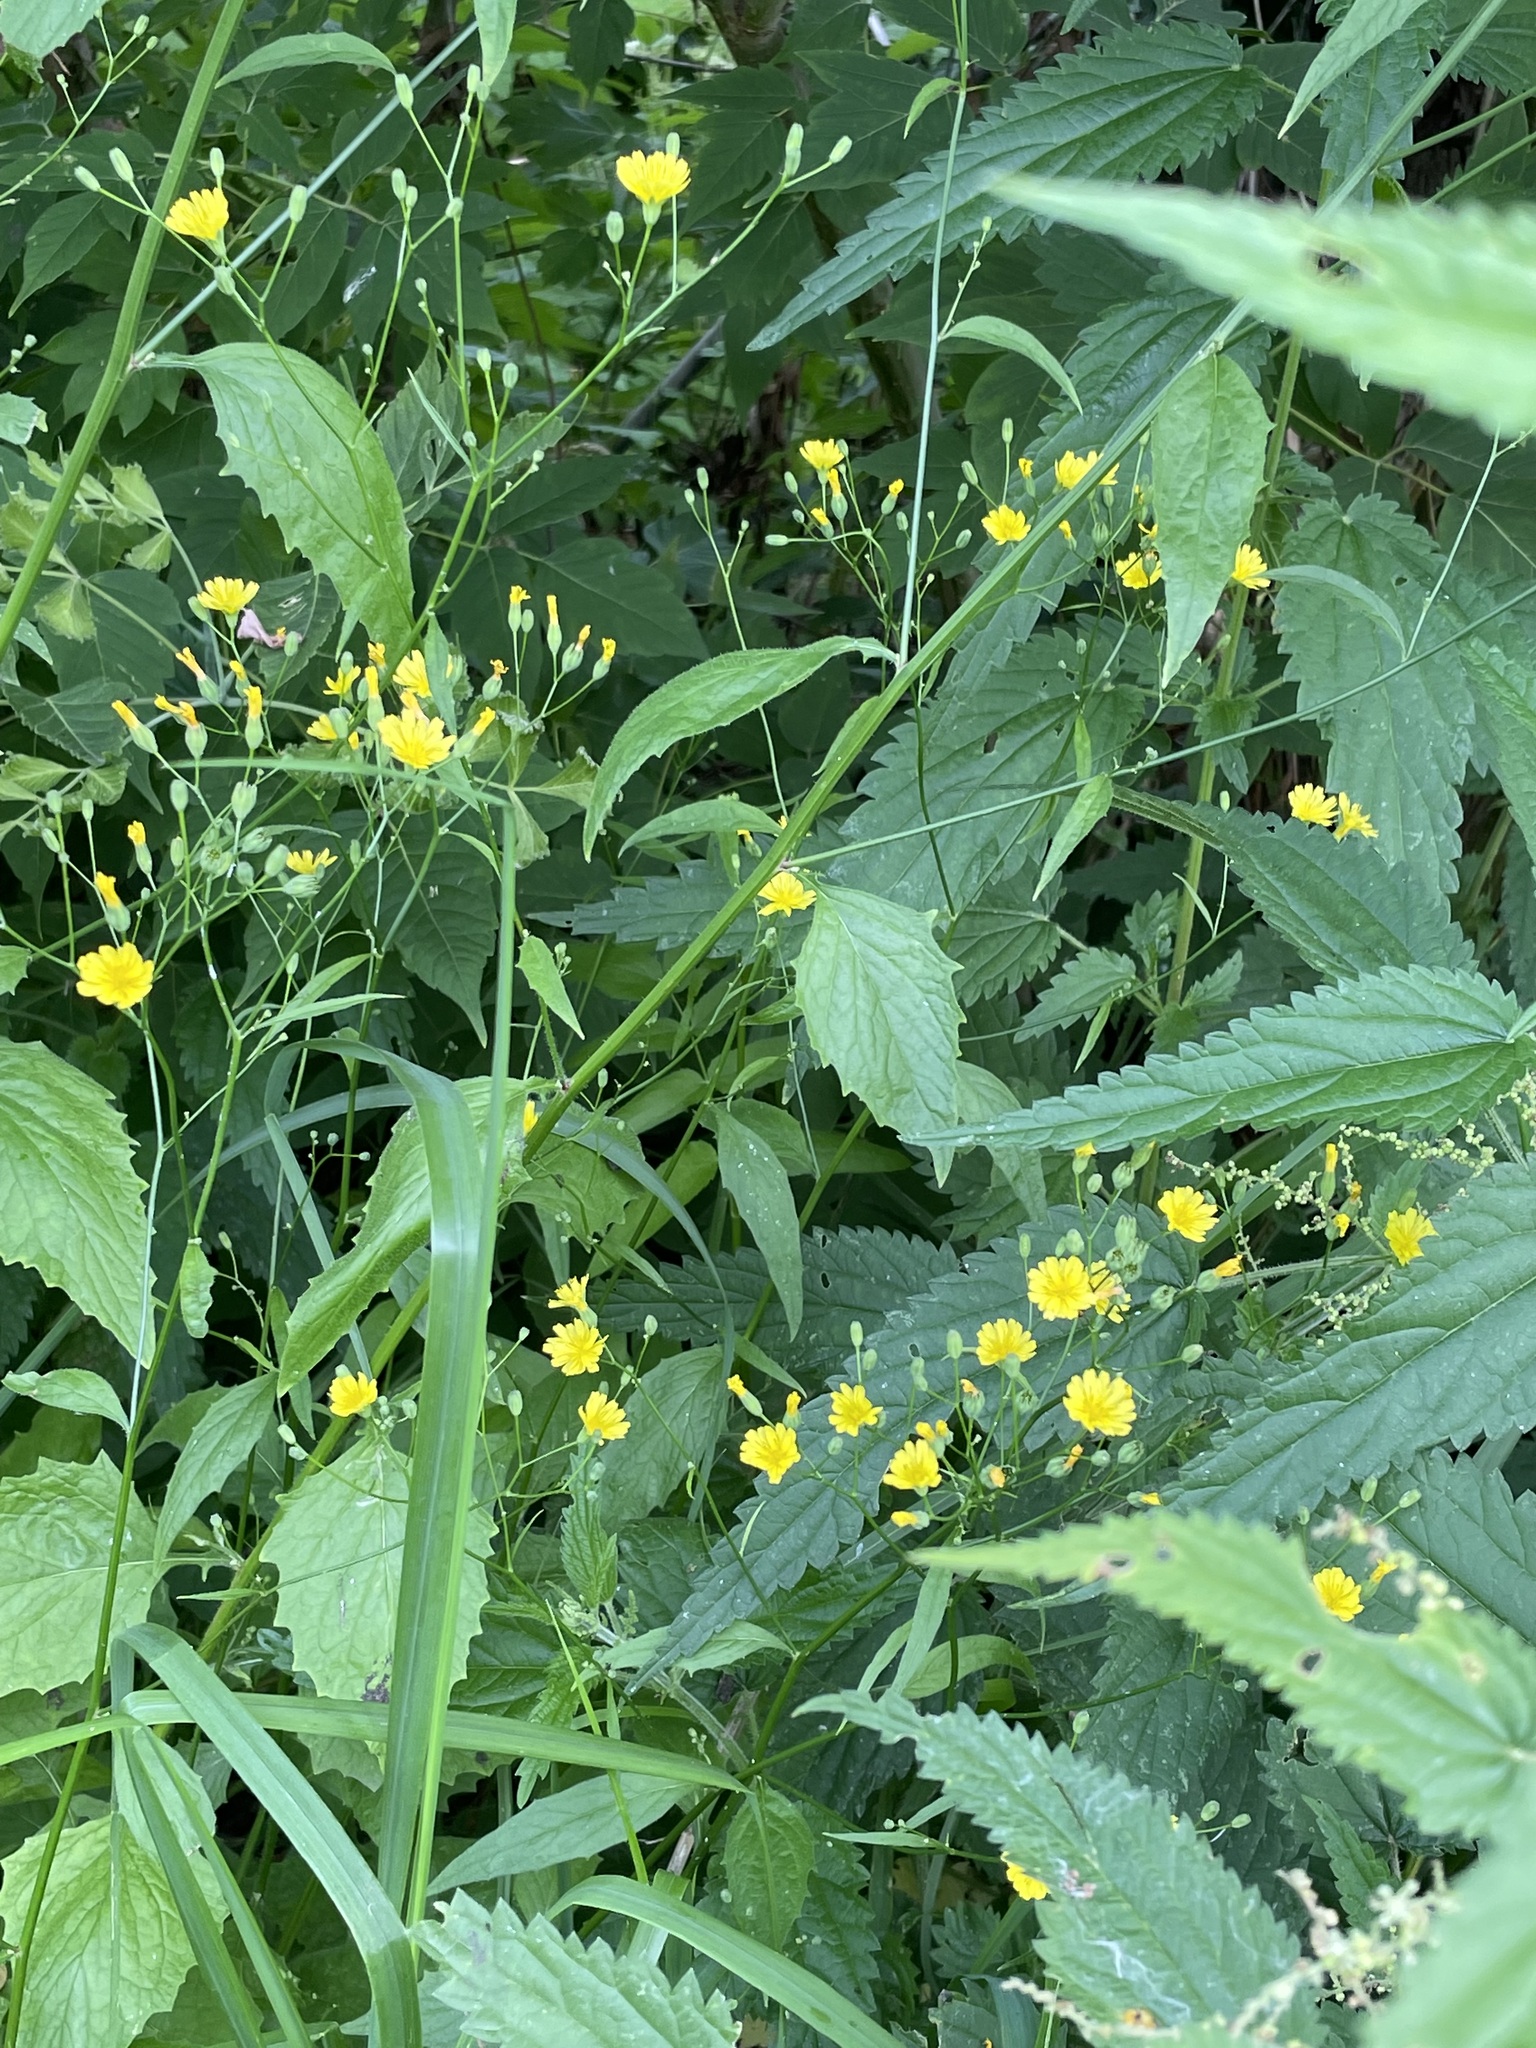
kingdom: Plantae
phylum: Tracheophyta
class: Magnoliopsida
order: Asterales
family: Asteraceae
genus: Lapsana
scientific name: Lapsana communis
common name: Nipplewort
